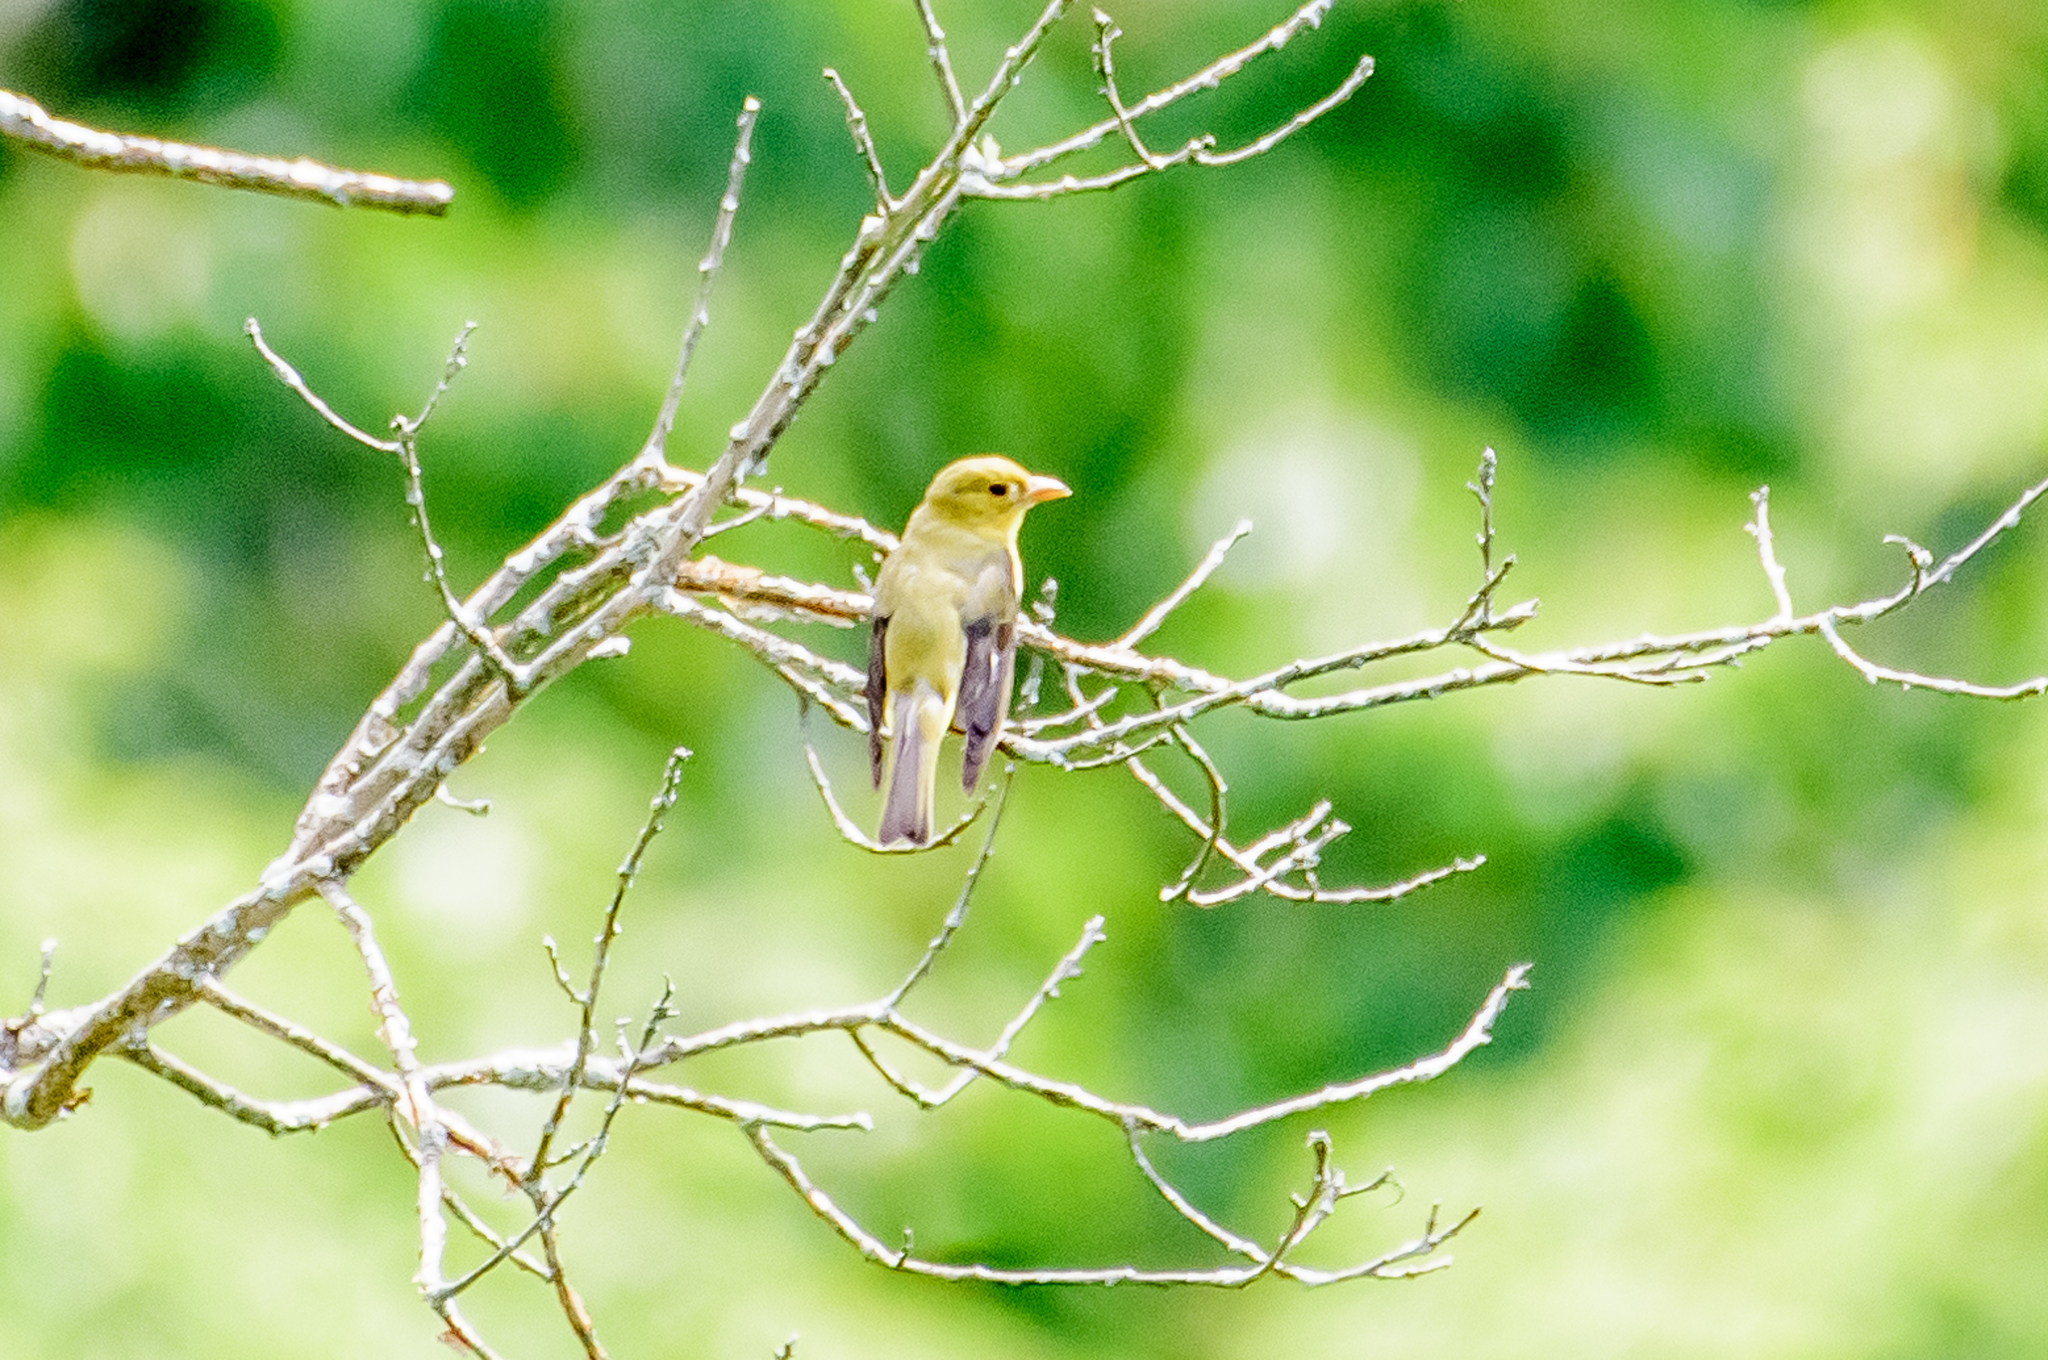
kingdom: Animalia
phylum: Chordata
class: Aves
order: Passeriformes
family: Cardinalidae
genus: Piranga
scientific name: Piranga olivacea
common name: Scarlet tanager
